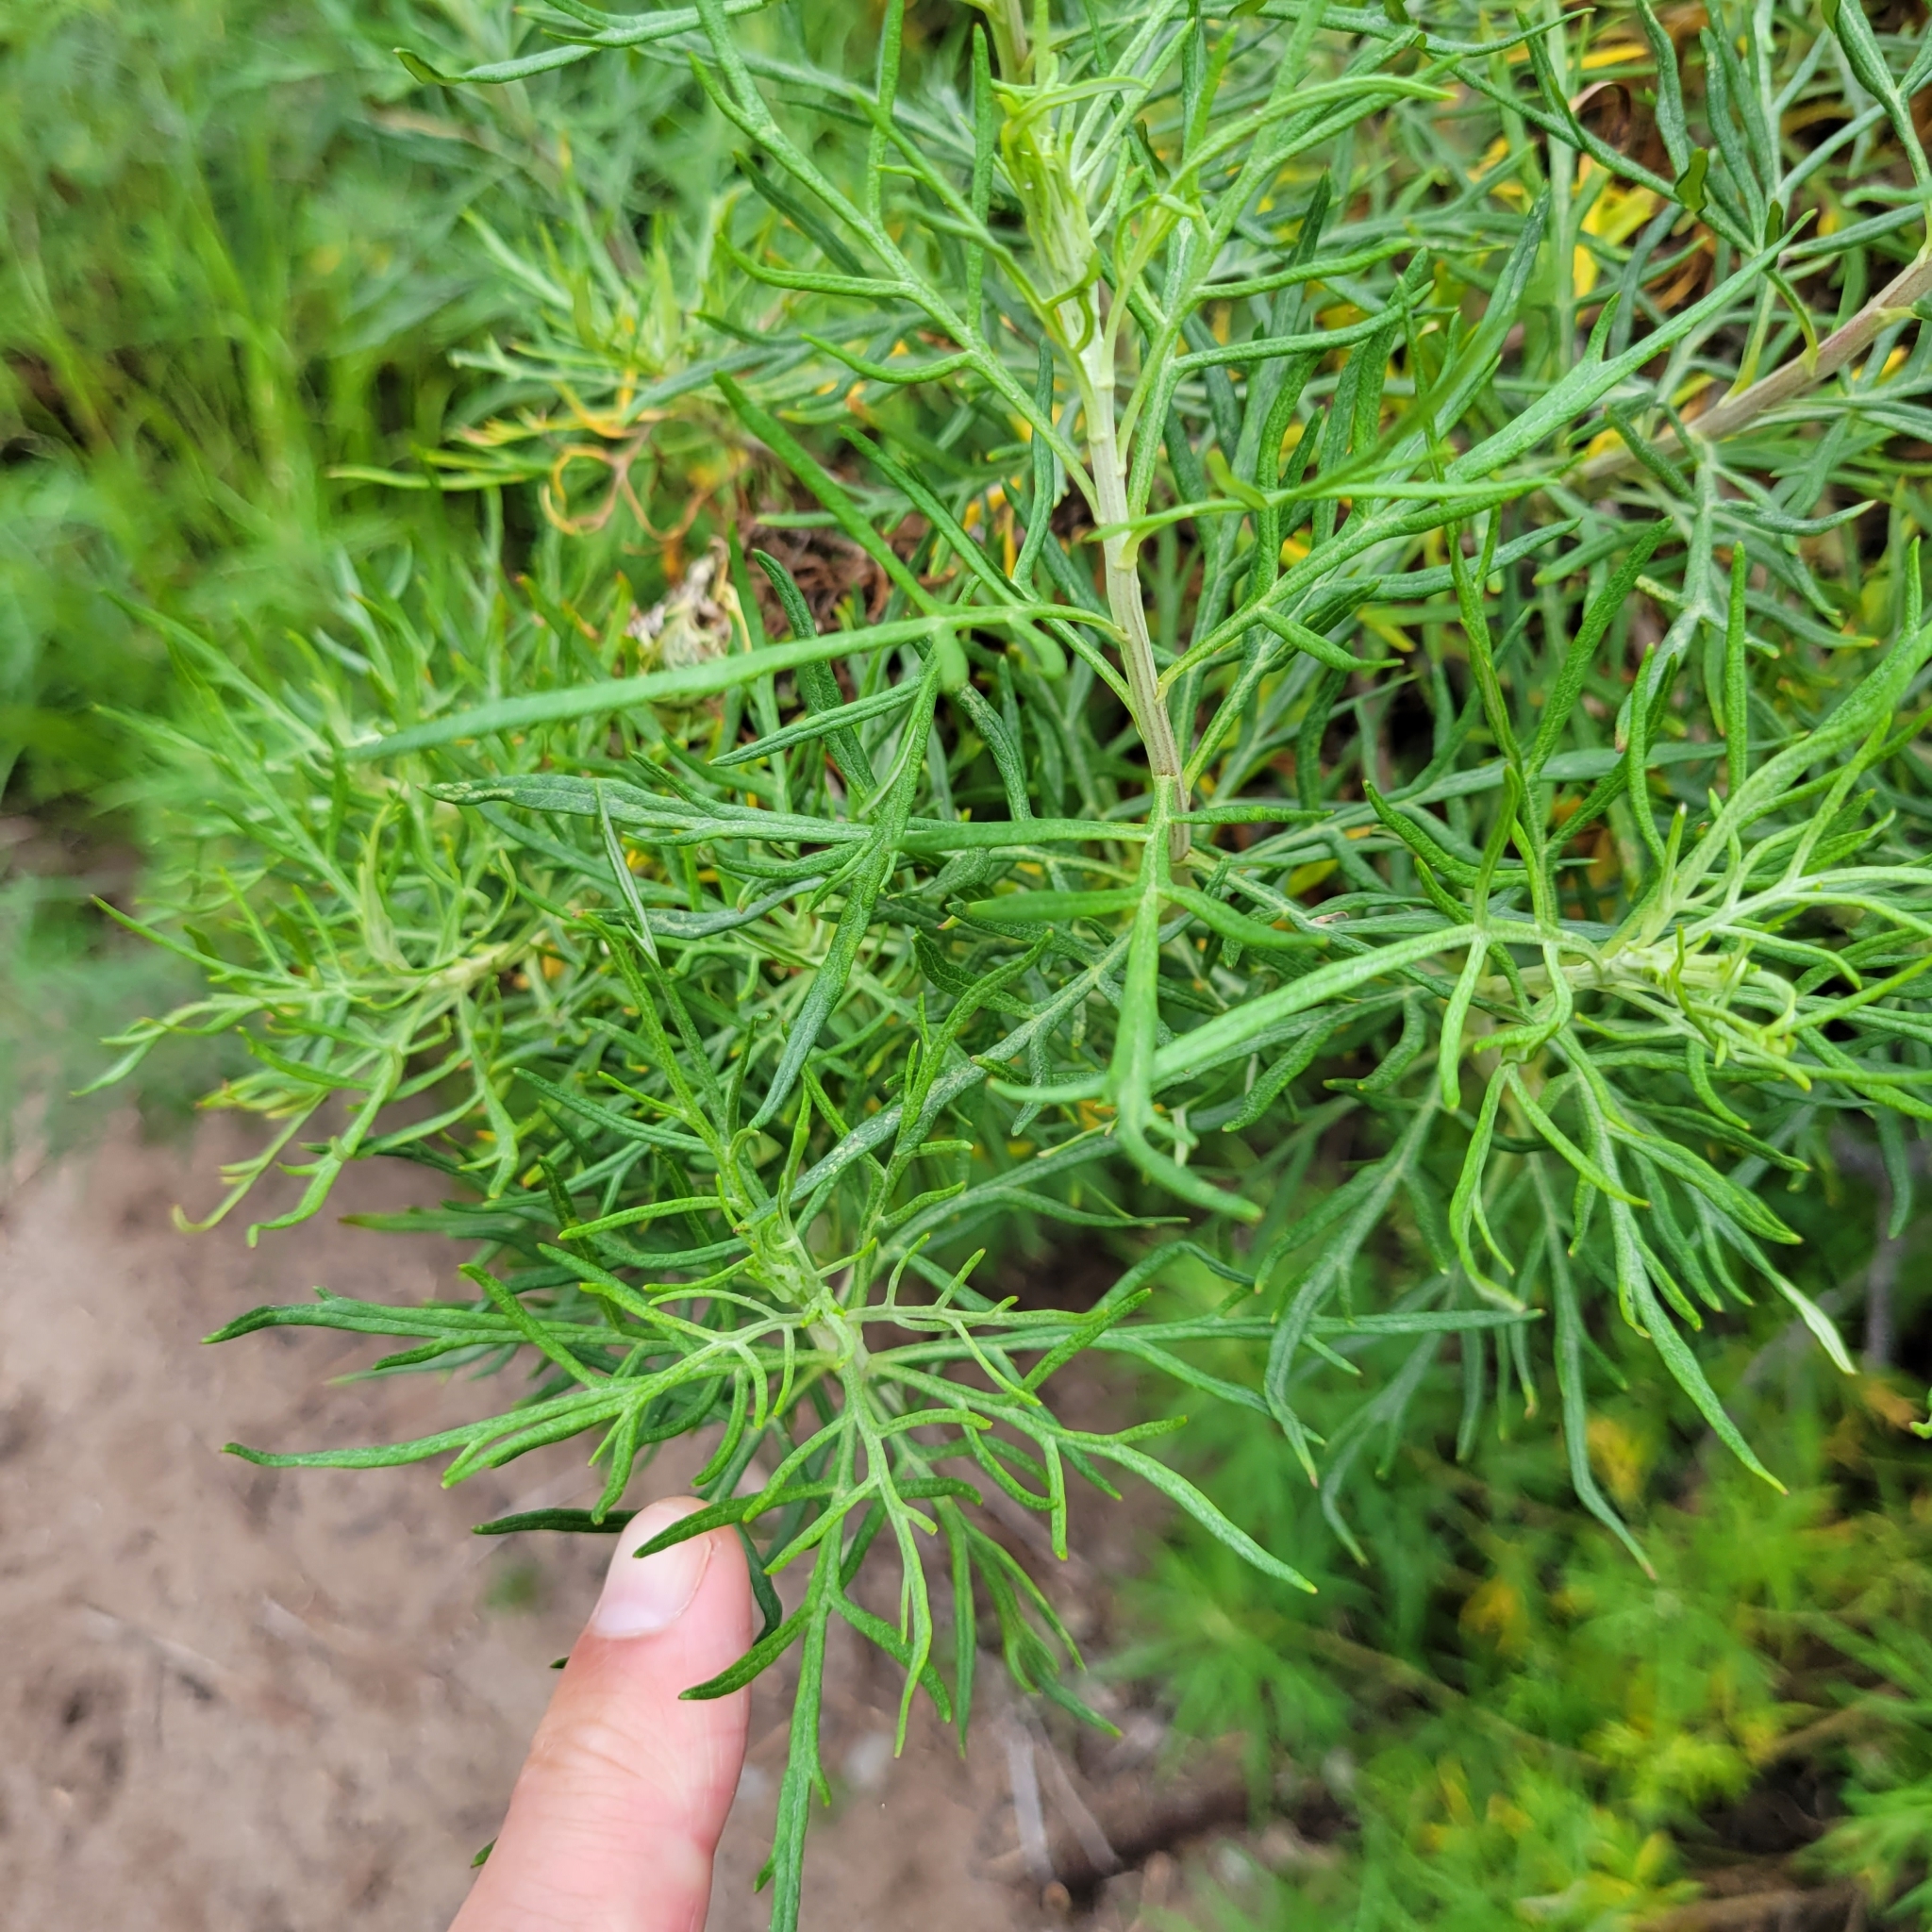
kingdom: Plantae
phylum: Tracheophyta
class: Magnoliopsida
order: Asterales
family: Asteraceae
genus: Artemisia
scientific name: Artemisia palmeri
